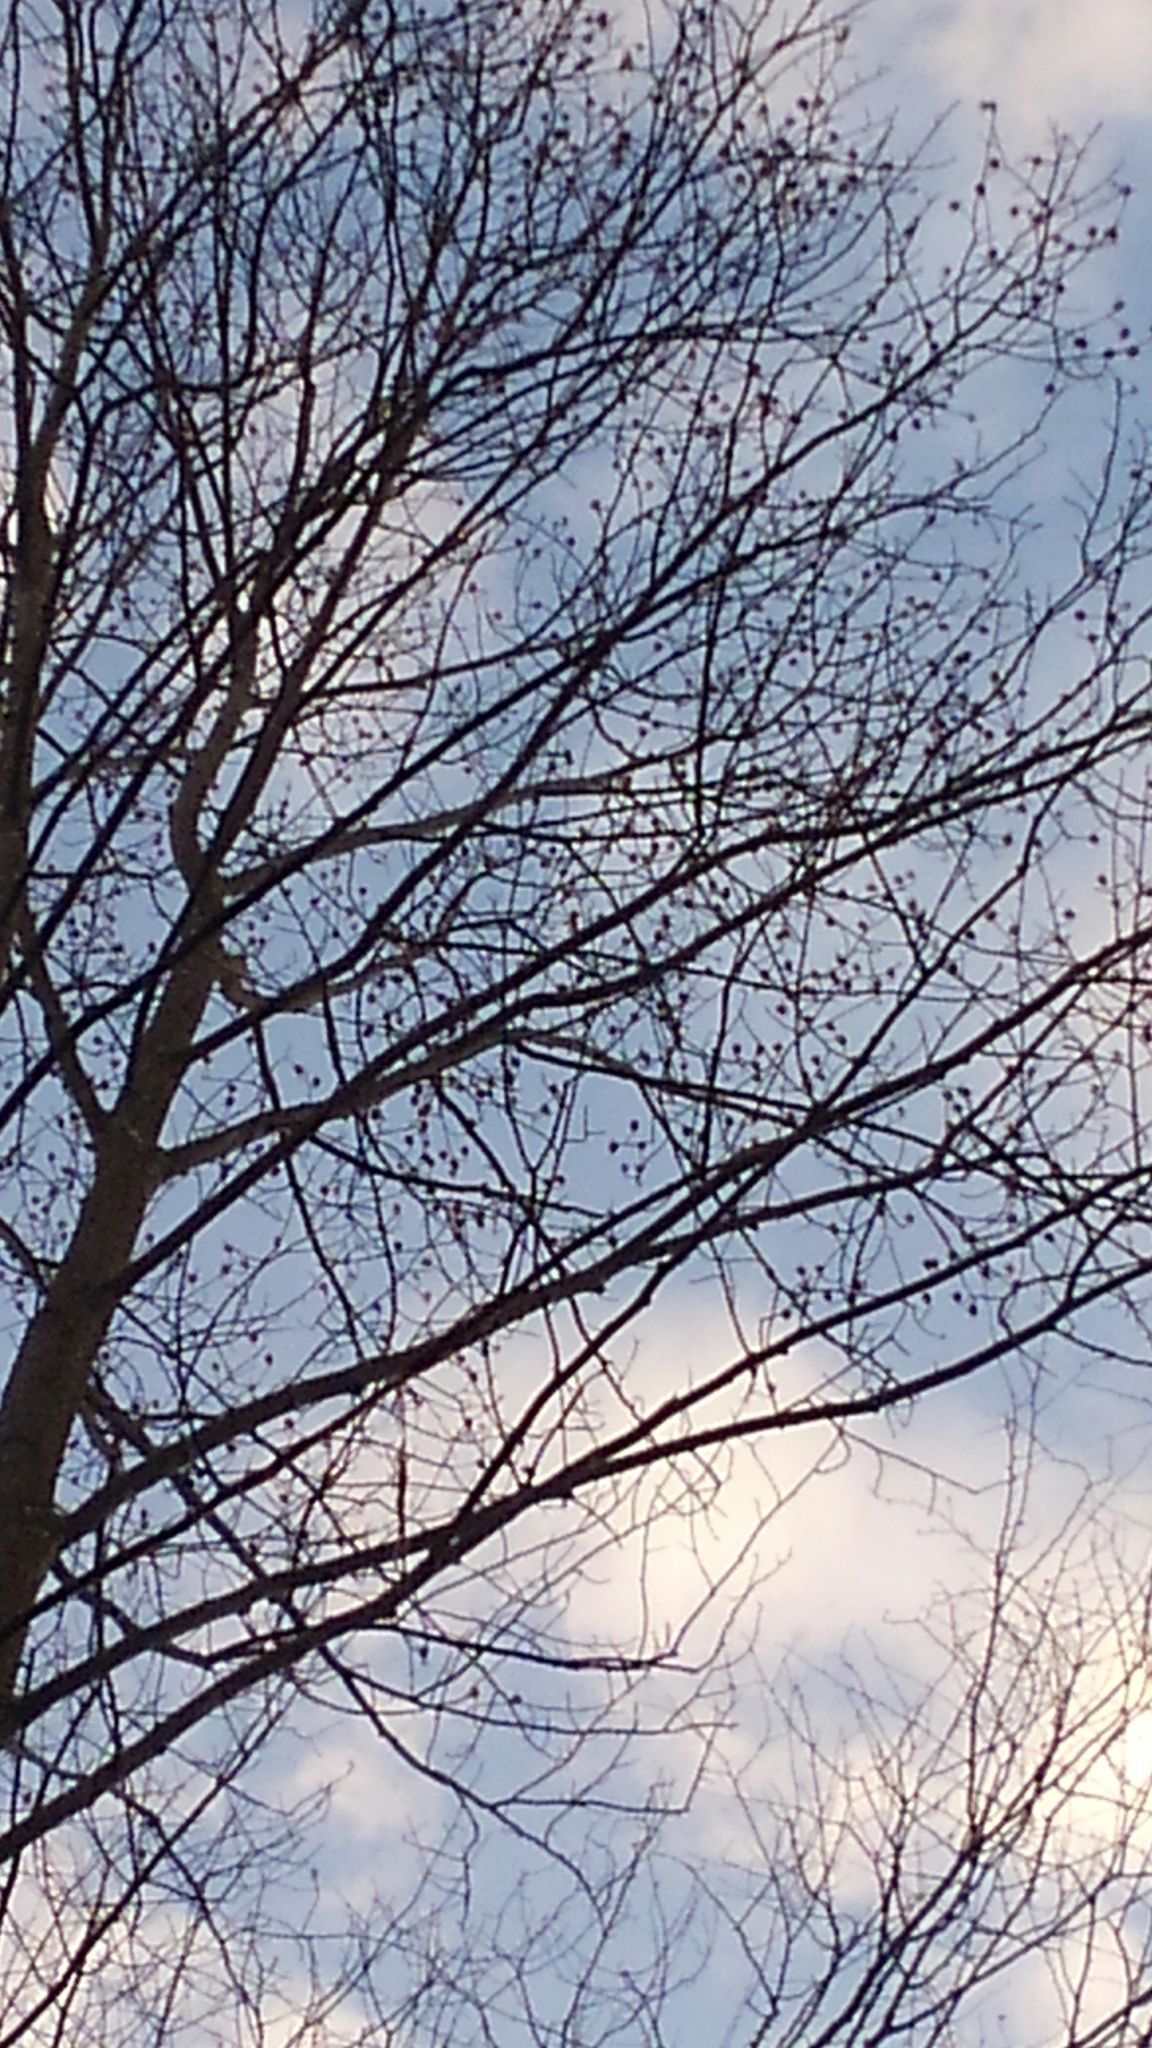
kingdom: Plantae
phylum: Tracheophyta
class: Magnoliopsida
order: Magnoliales
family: Magnoliaceae
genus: Liriodendron
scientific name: Liriodendron tulipifera
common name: Tulip tree
